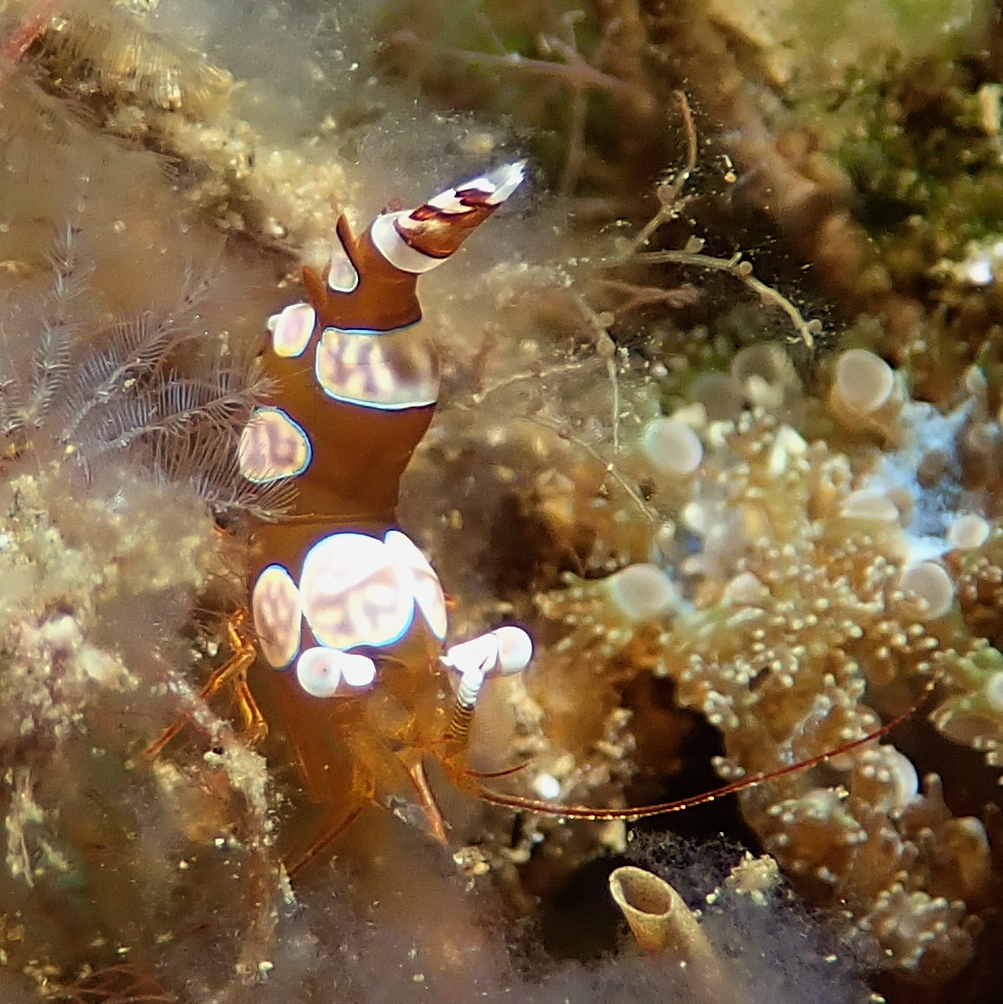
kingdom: Animalia
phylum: Arthropoda
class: Malacostraca
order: Decapoda
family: Thoridae
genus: Thor
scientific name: Thor amboinensis
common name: Squat anemone shrimp
